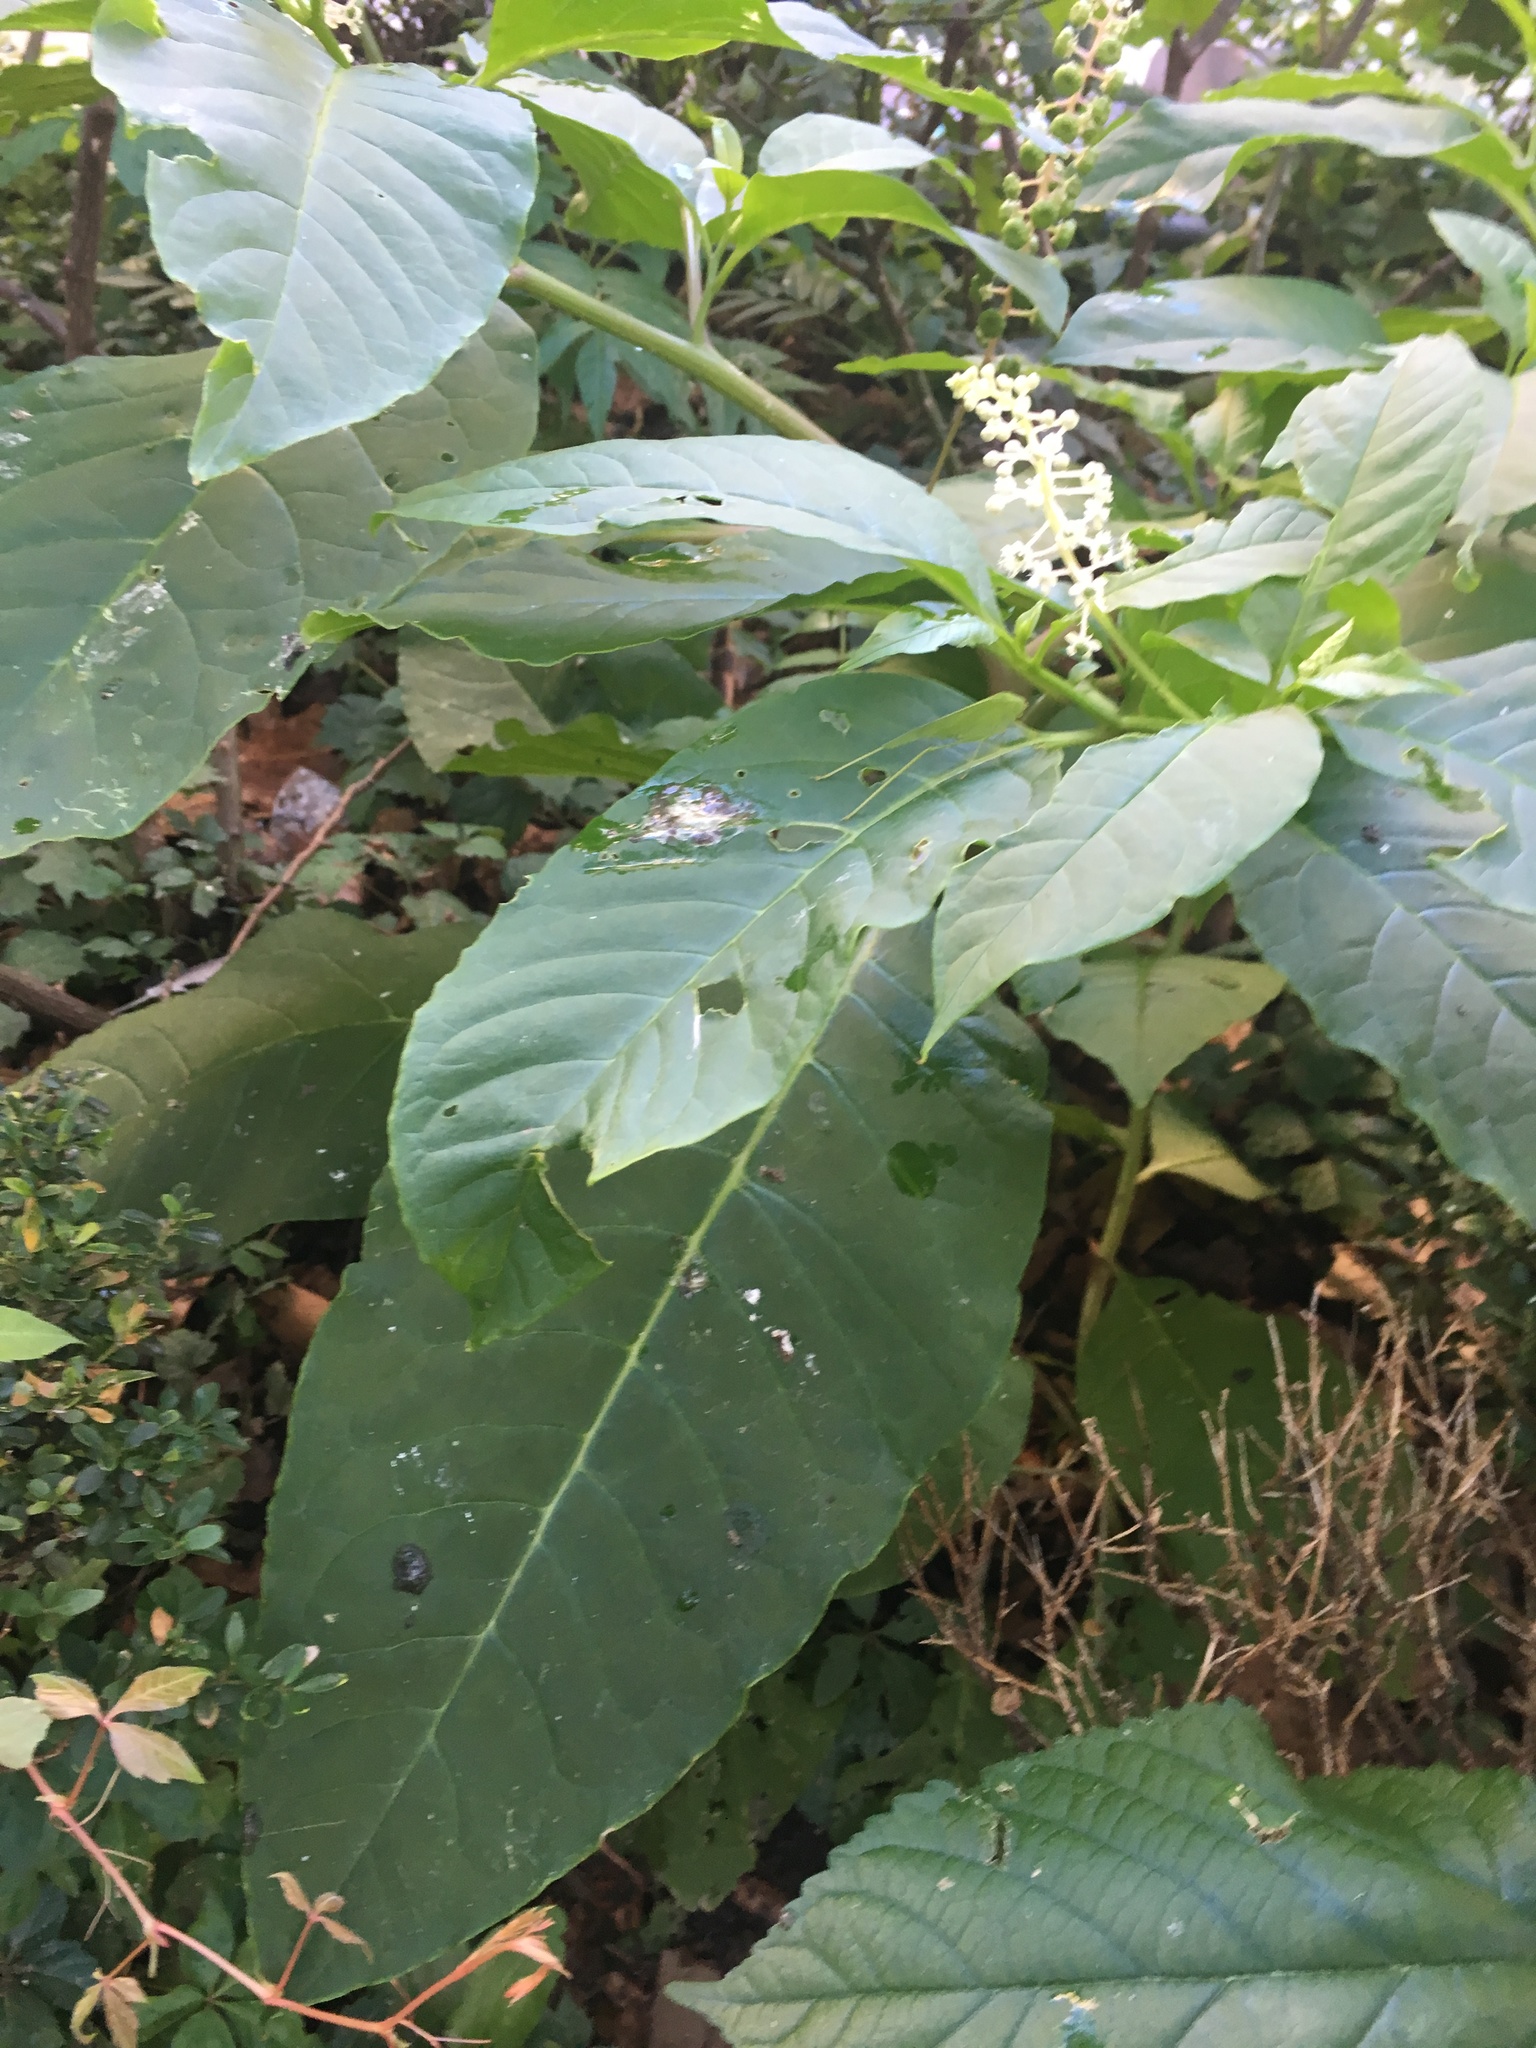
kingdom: Plantae
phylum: Tracheophyta
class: Magnoliopsida
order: Caryophyllales
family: Phytolaccaceae
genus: Phytolacca
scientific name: Phytolacca americana
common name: American pokeweed
